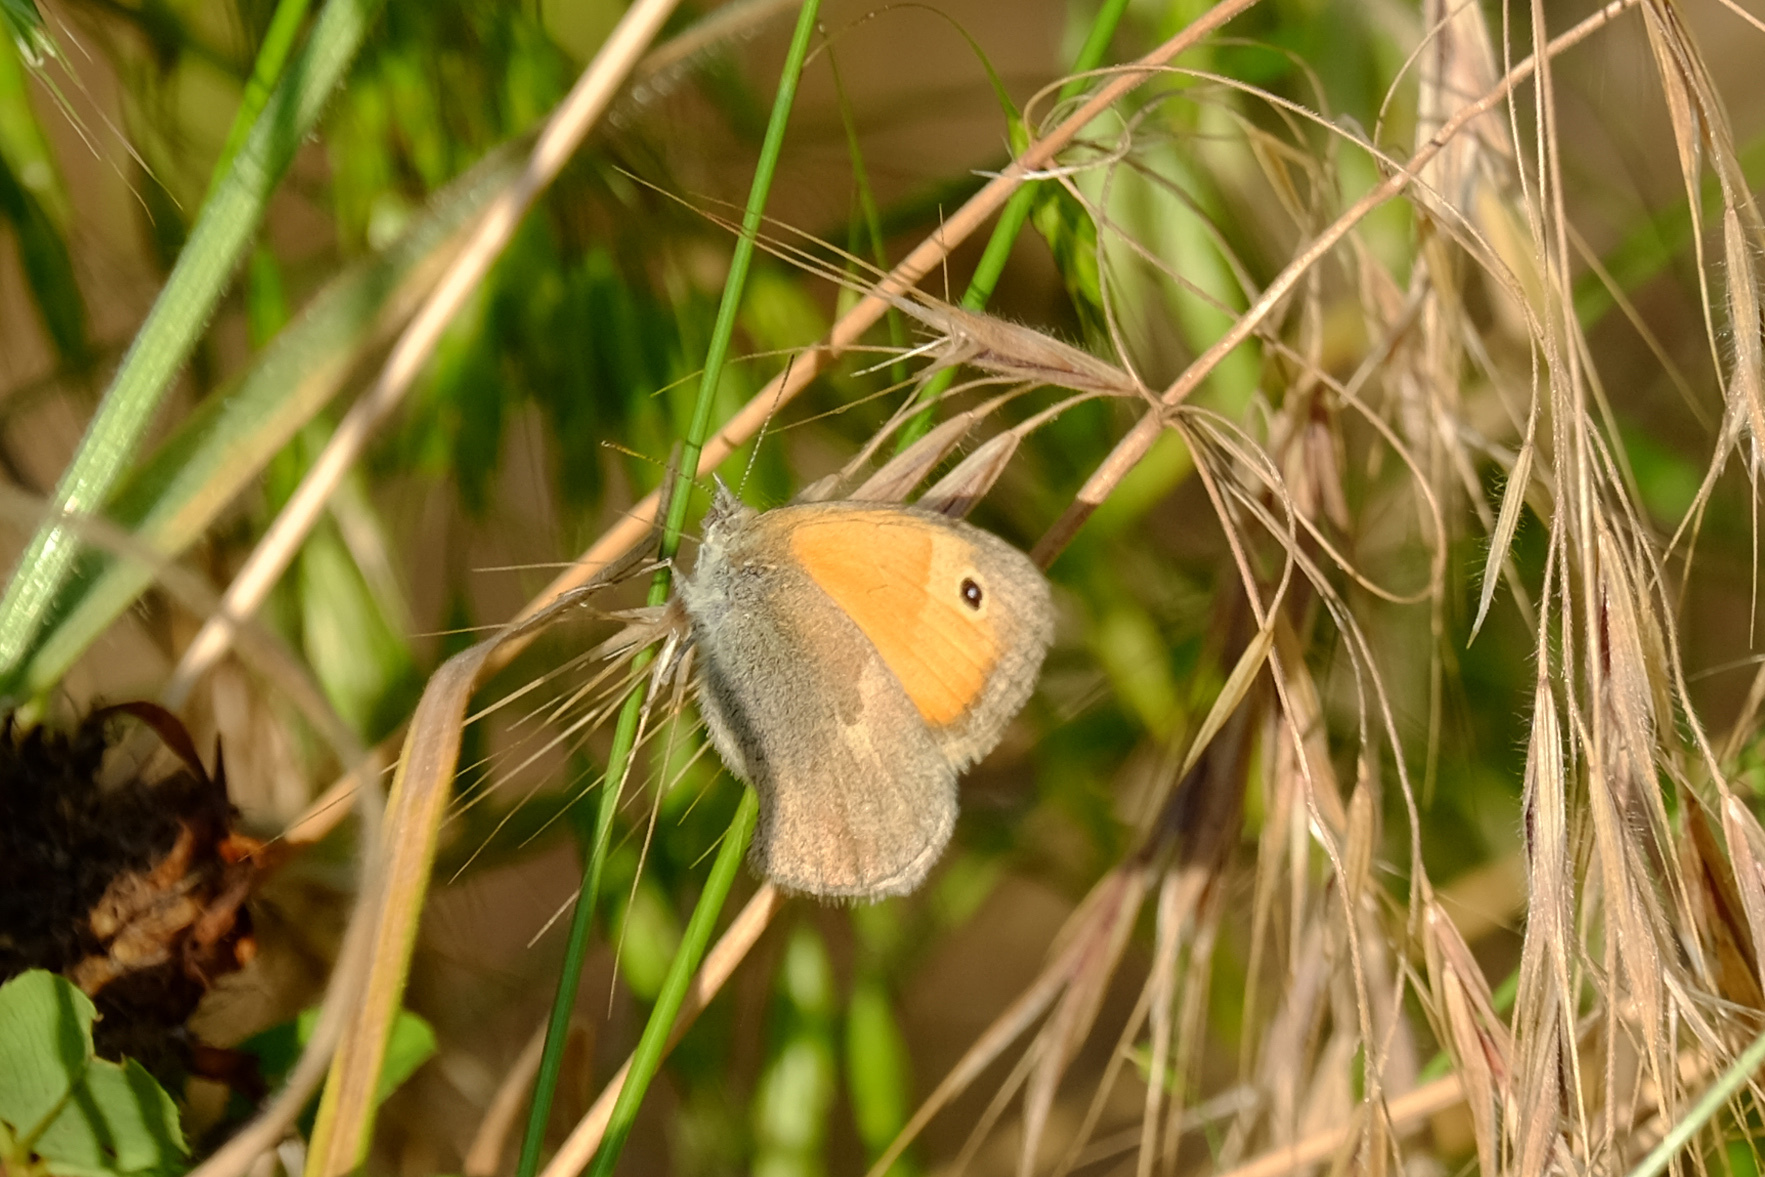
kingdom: Animalia
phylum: Arthropoda
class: Insecta
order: Lepidoptera
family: Nymphalidae
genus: Coenonympha
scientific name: Coenonympha pamphilus
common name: Small heath
